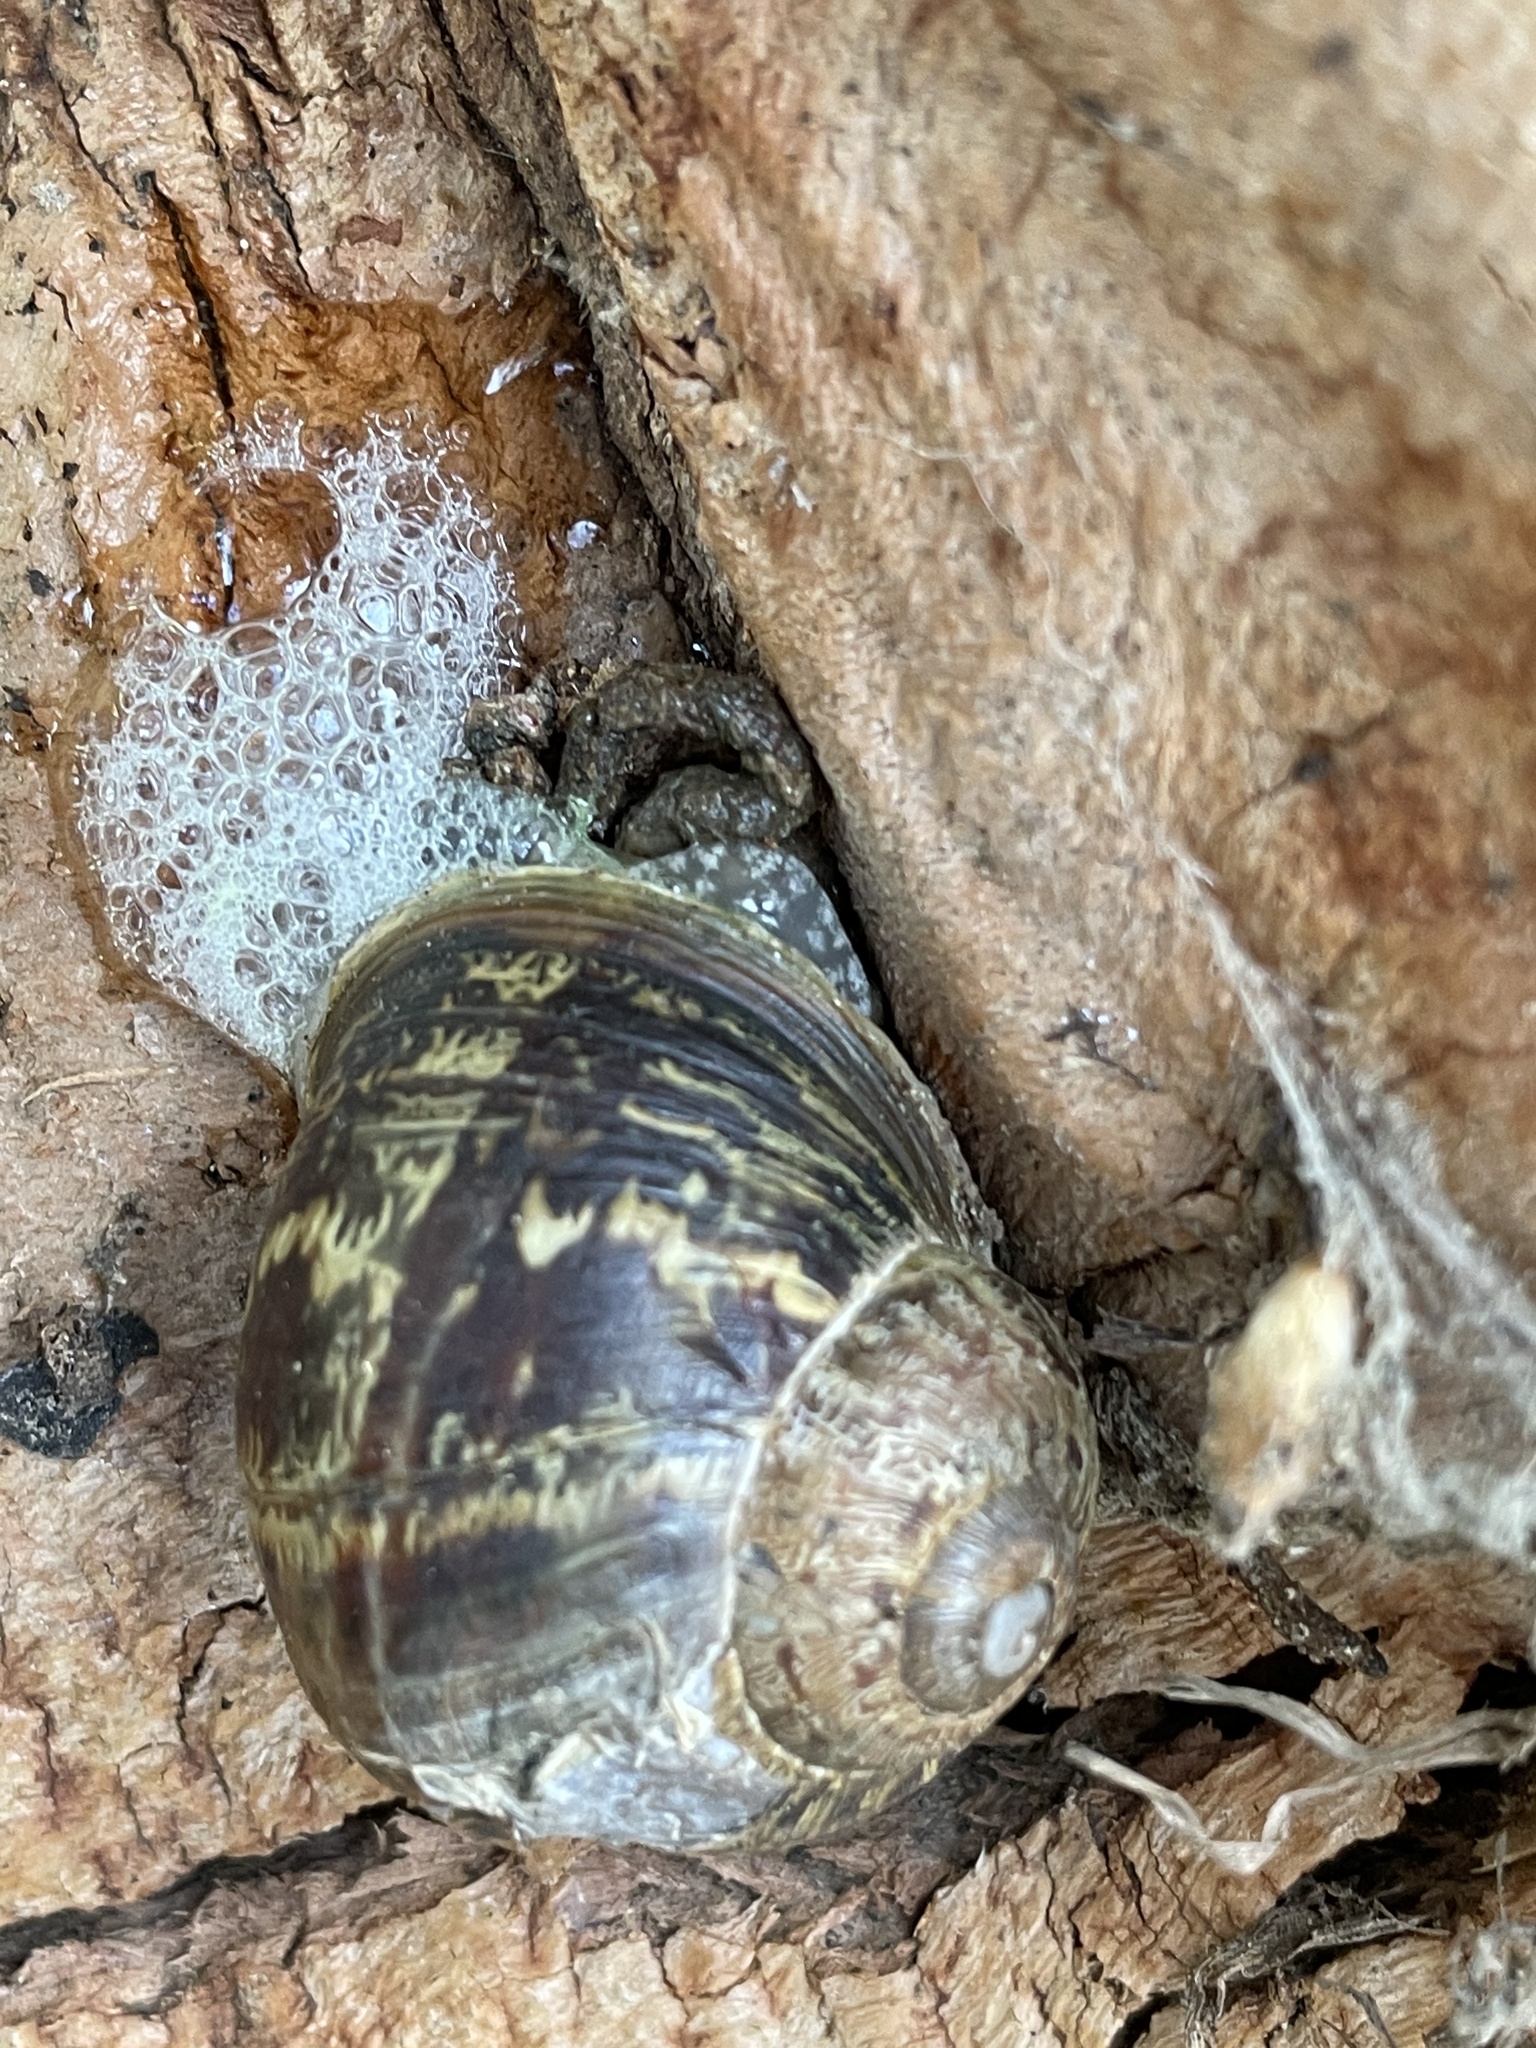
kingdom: Animalia
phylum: Mollusca
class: Gastropoda
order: Stylommatophora
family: Helicidae
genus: Cornu
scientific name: Cornu aspersum
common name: Brown garden snail
